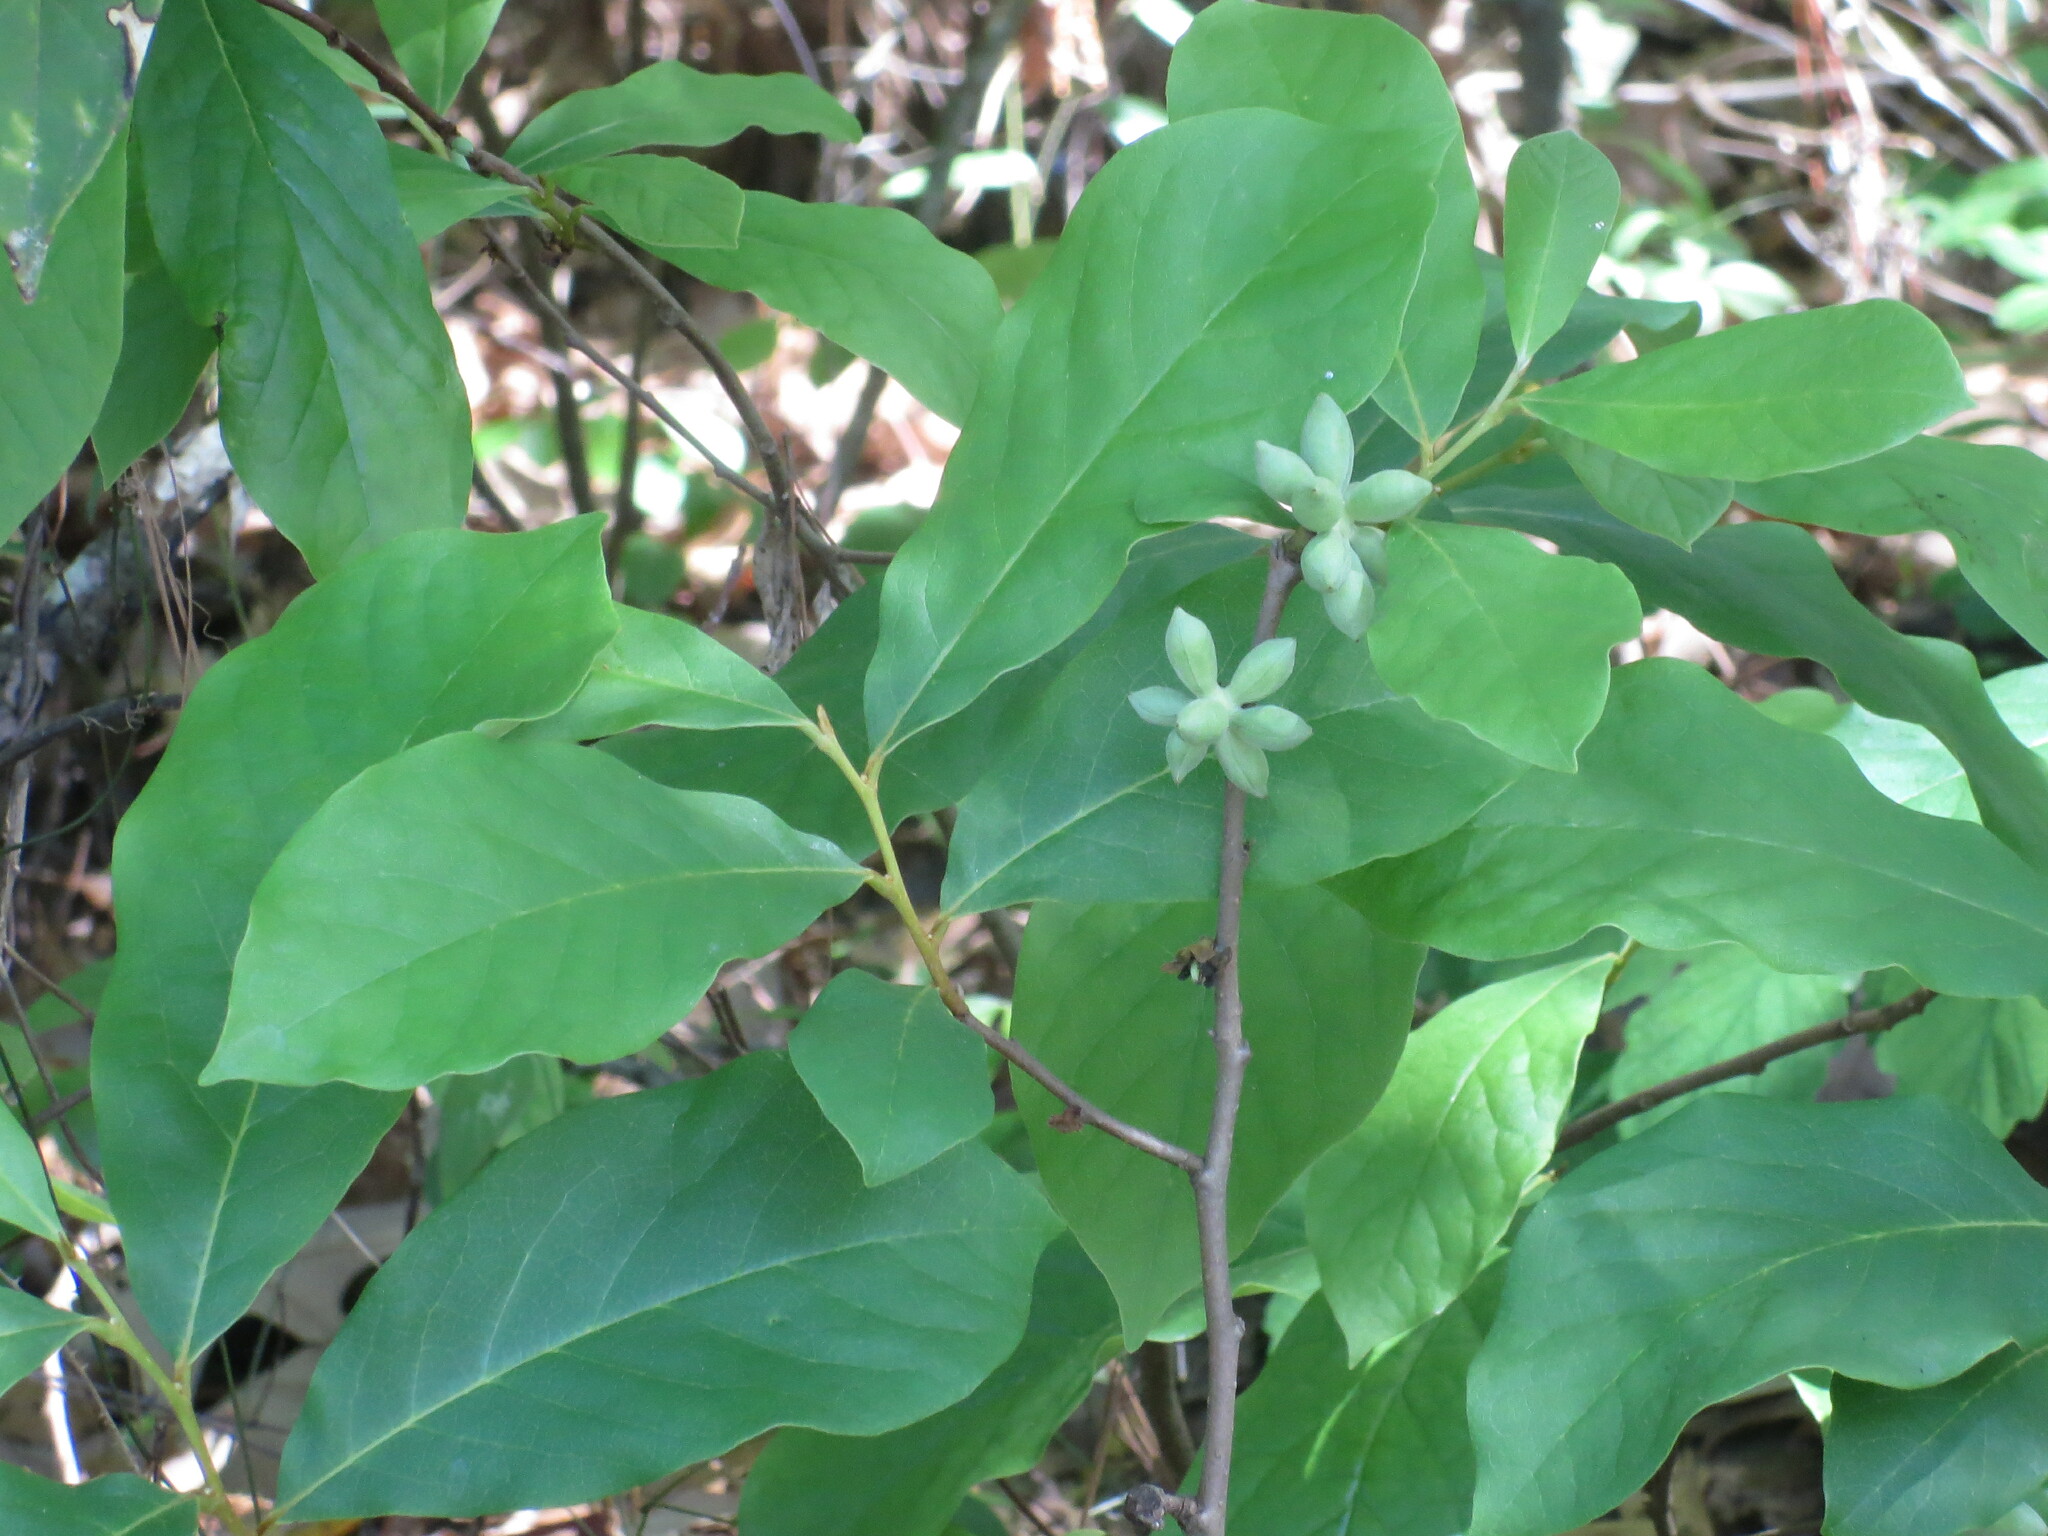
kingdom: Plantae
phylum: Tracheophyta
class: Magnoliopsida
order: Magnoliales
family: Annonaceae
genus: Asimina
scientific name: Asimina parviflora
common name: Dwarf pawpaw
